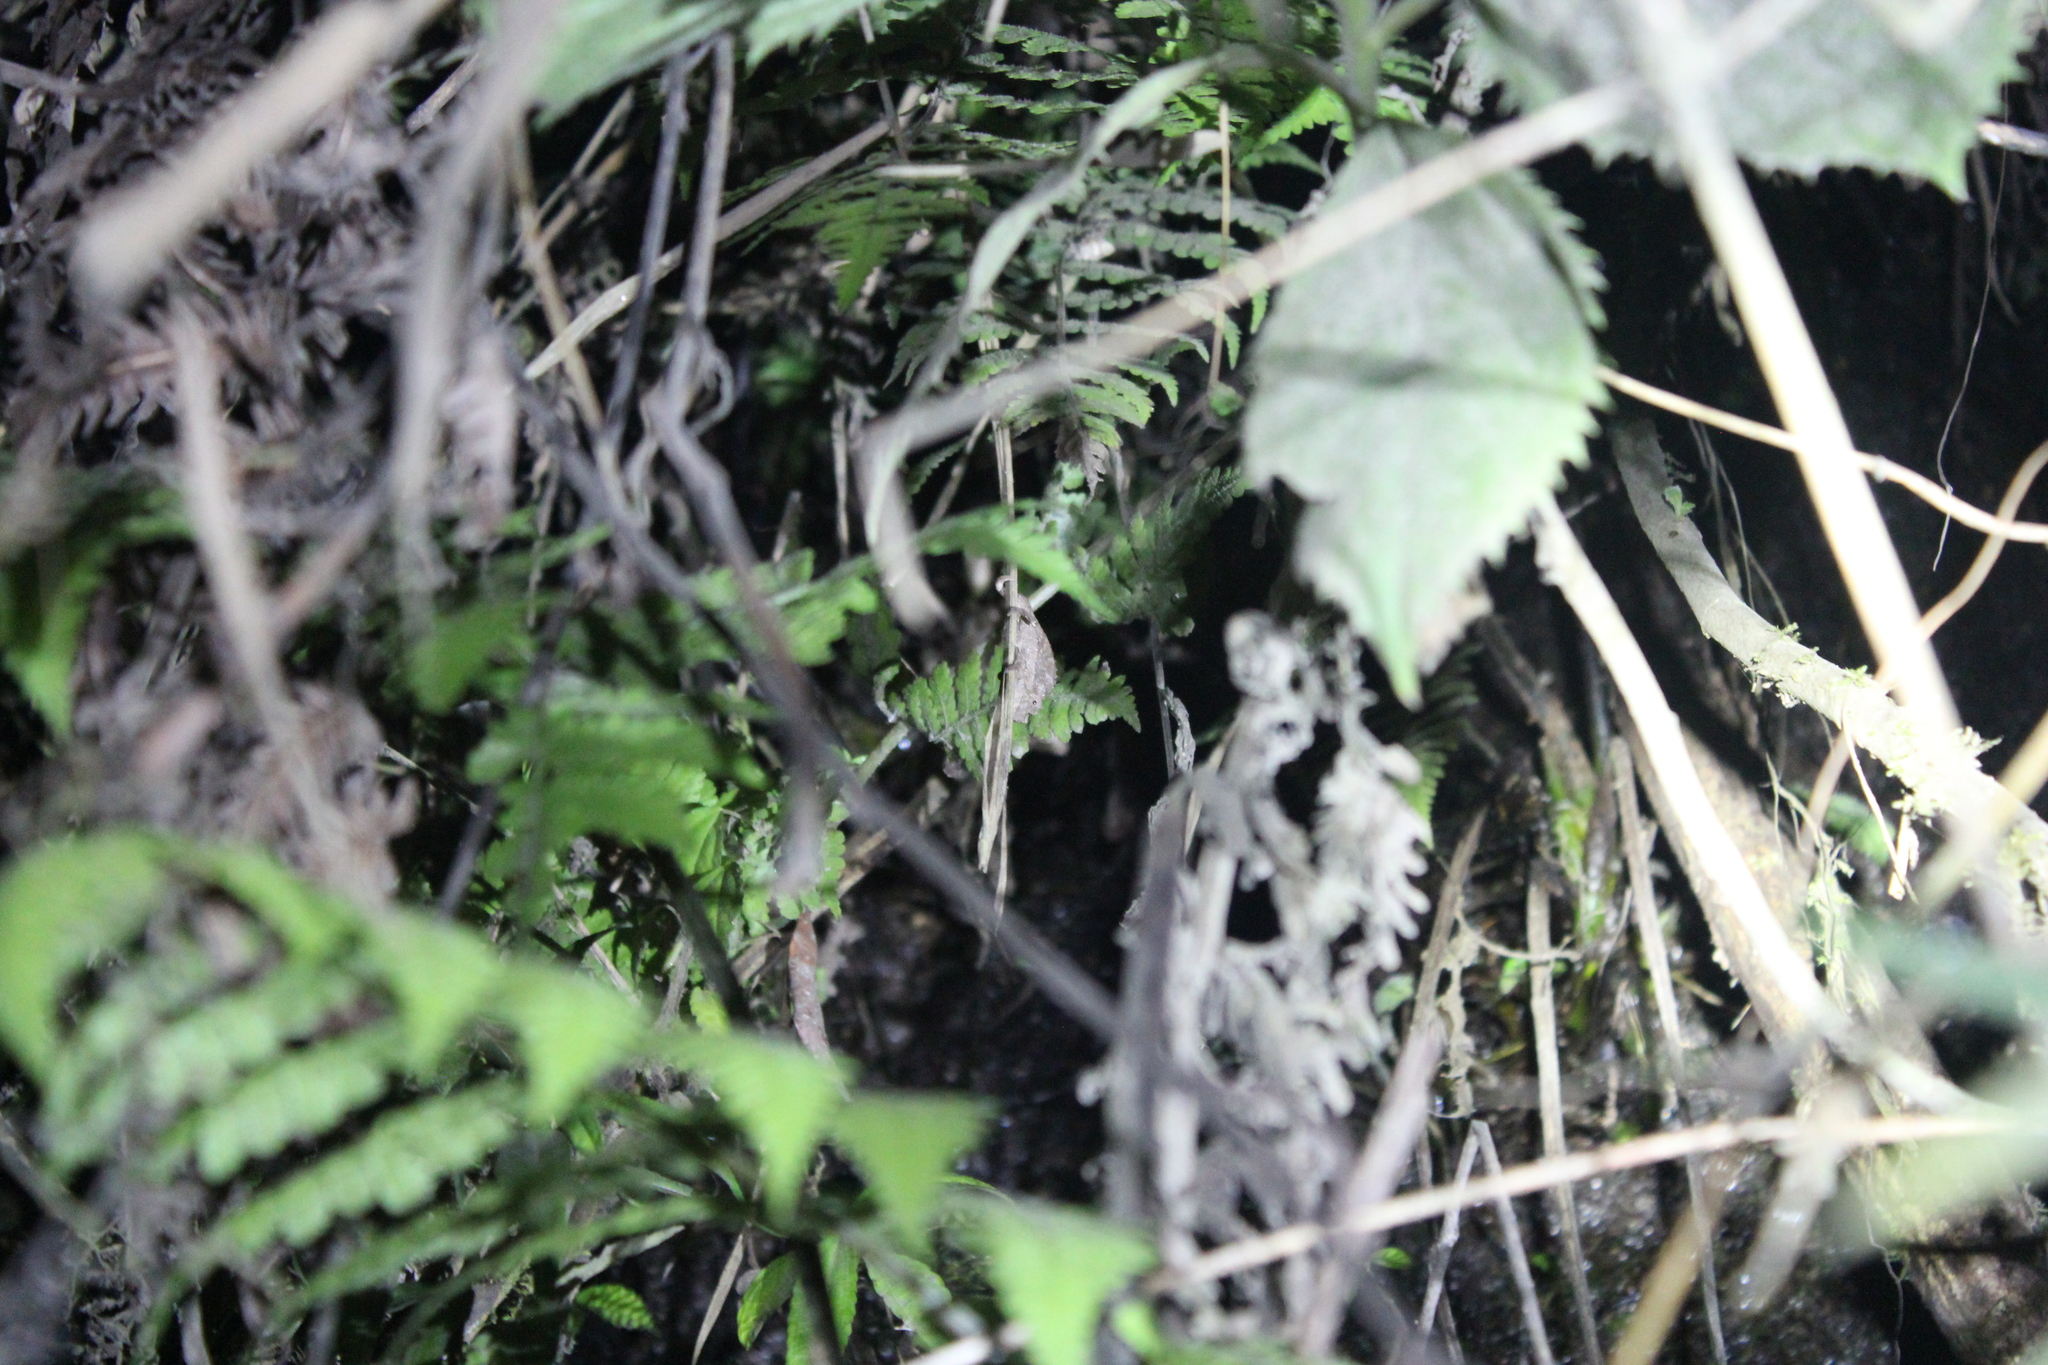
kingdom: Animalia
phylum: Chordata
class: Squamata
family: Chamaeleonidae
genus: Palleon
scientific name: Palleon nasus
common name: Elongate leaf chameleon
